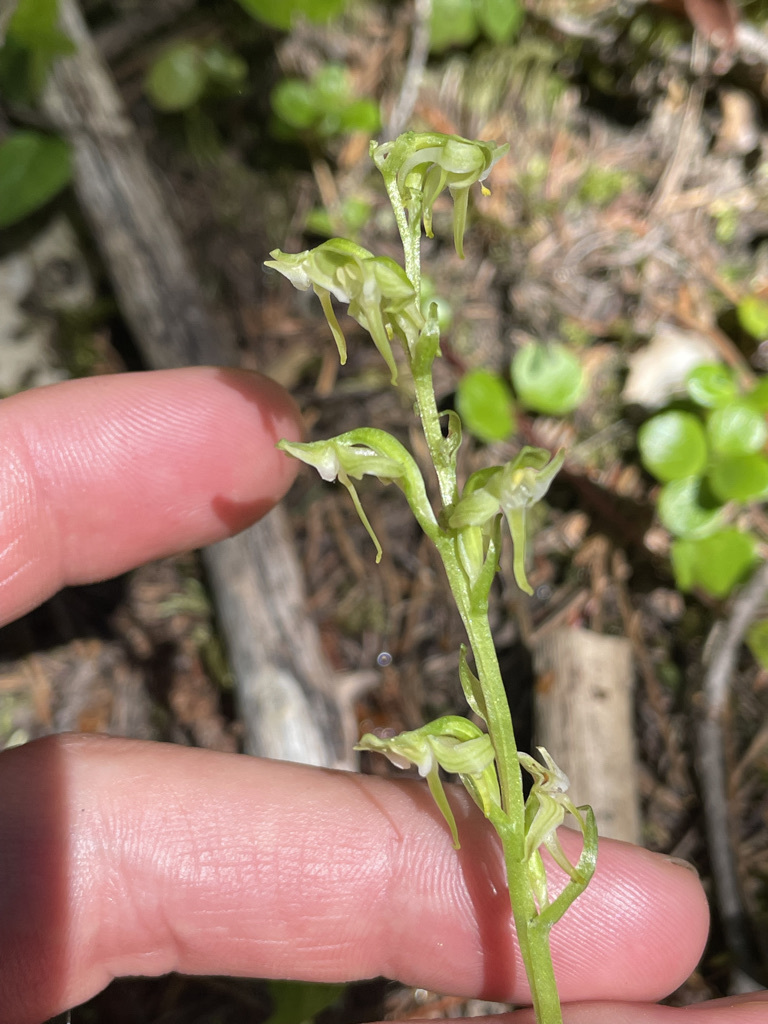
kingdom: Plantae
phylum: Tracheophyta
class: Liliopsida
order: Asparagales
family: Orchidaceae
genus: Platanthera
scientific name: Platanthera obtusata
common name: Blunt bog orchid
